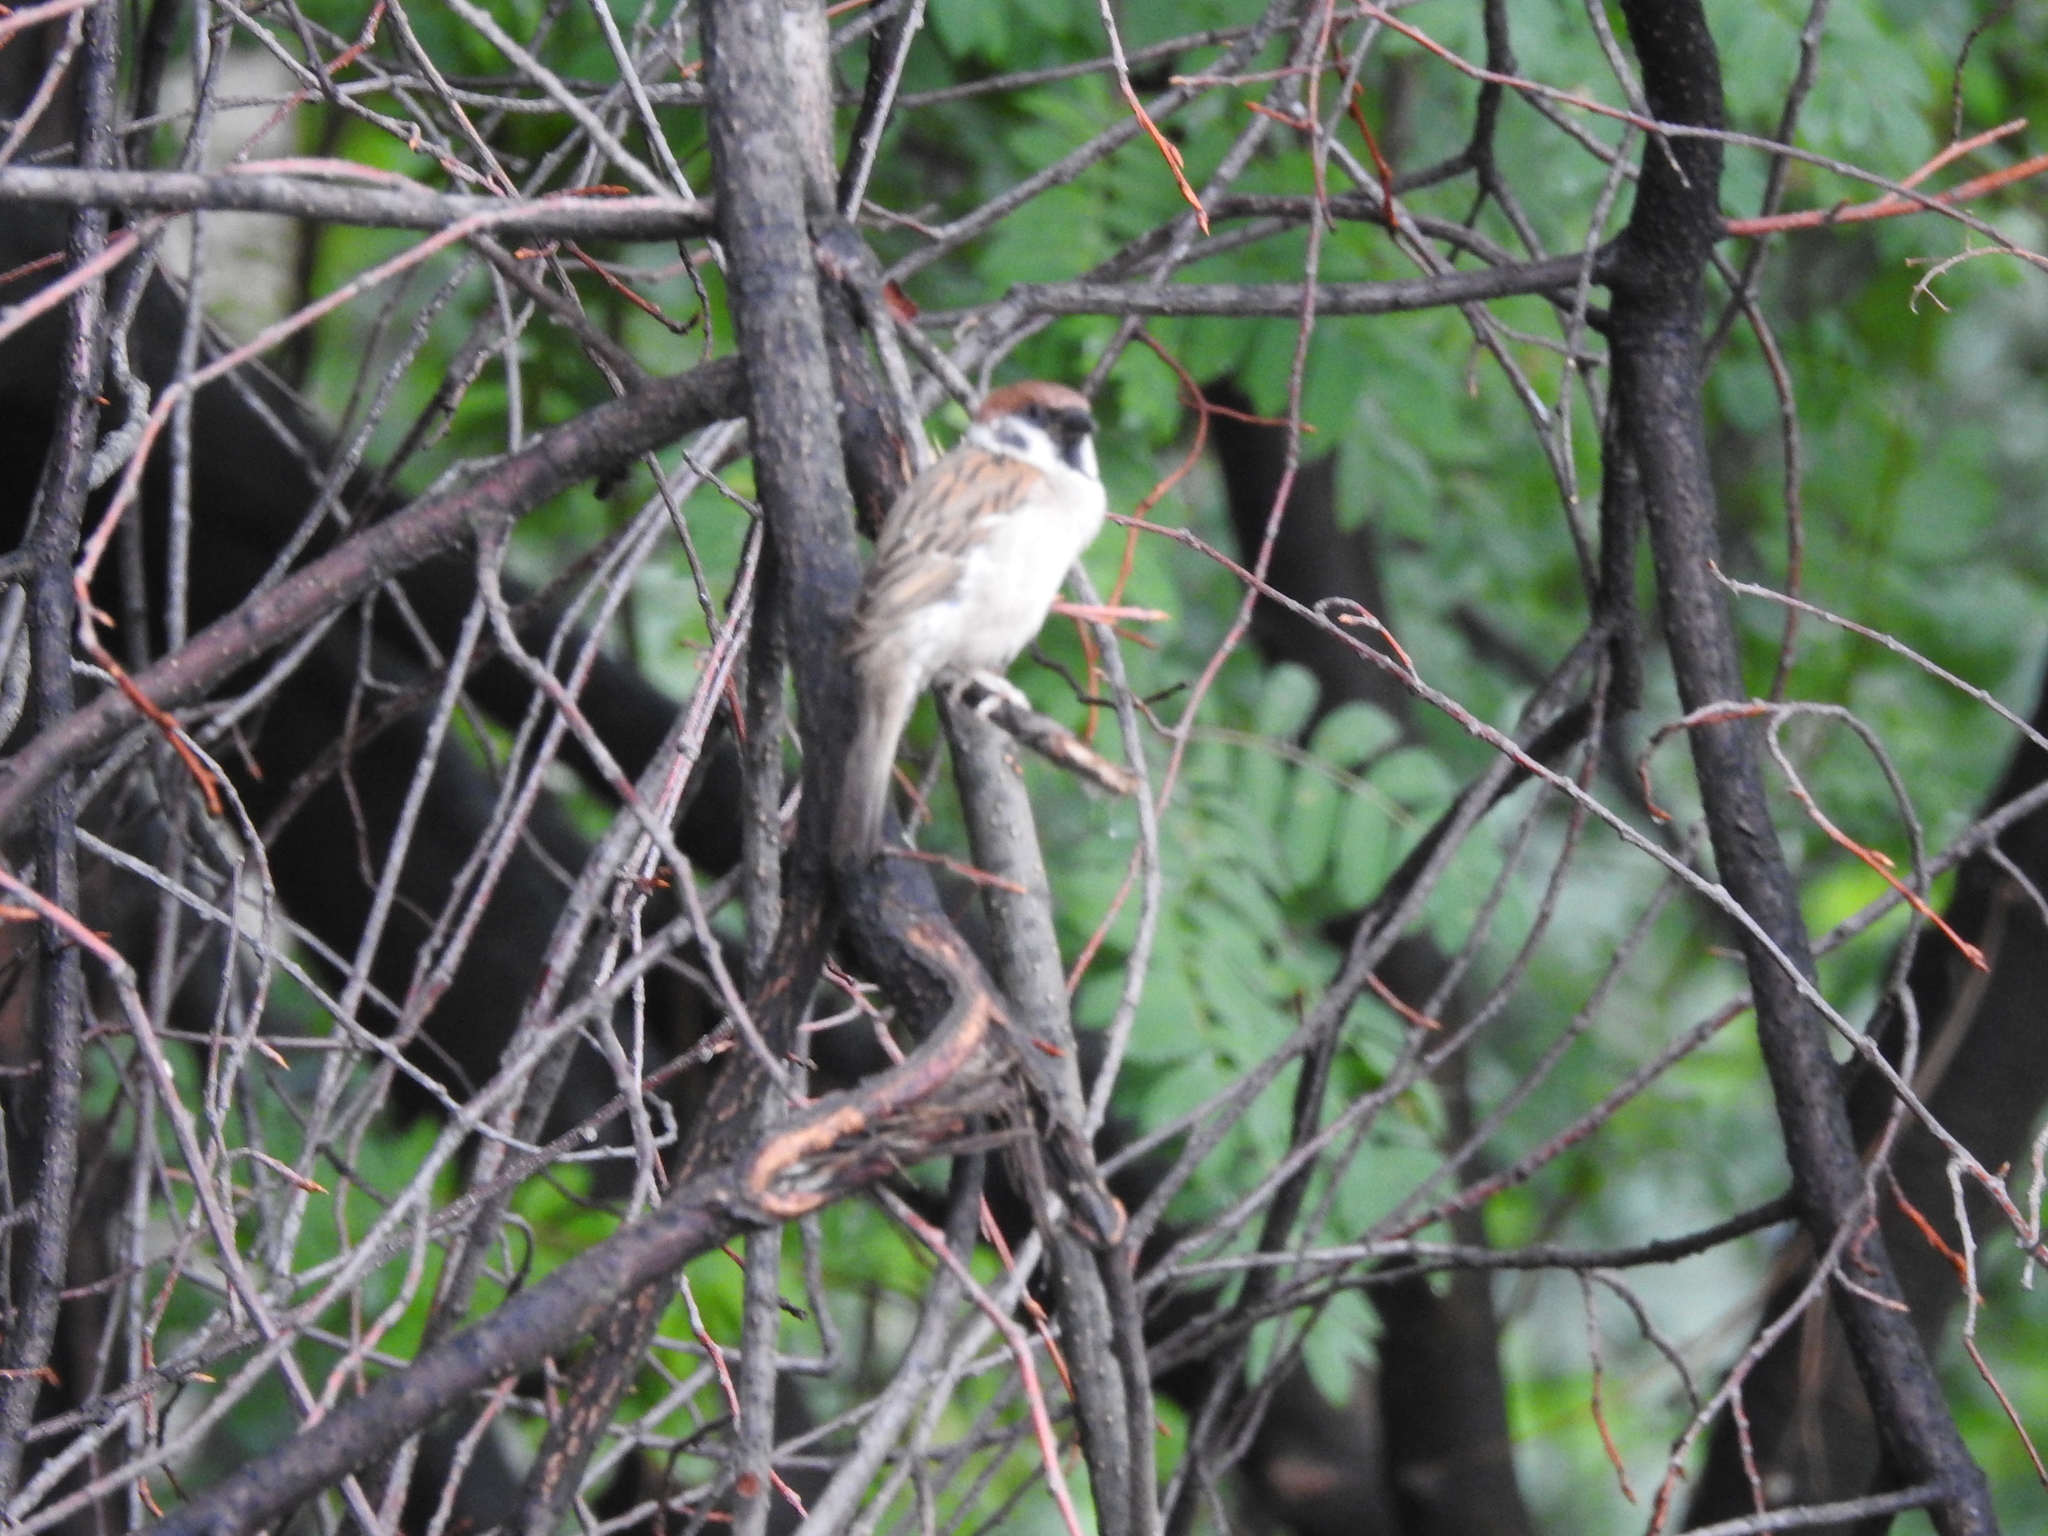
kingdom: Animalia
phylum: Chordata
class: Aves
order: Passeriformes
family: Passeridae
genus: Passer
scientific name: Passer montanus
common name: Eurasian tree sparrow
